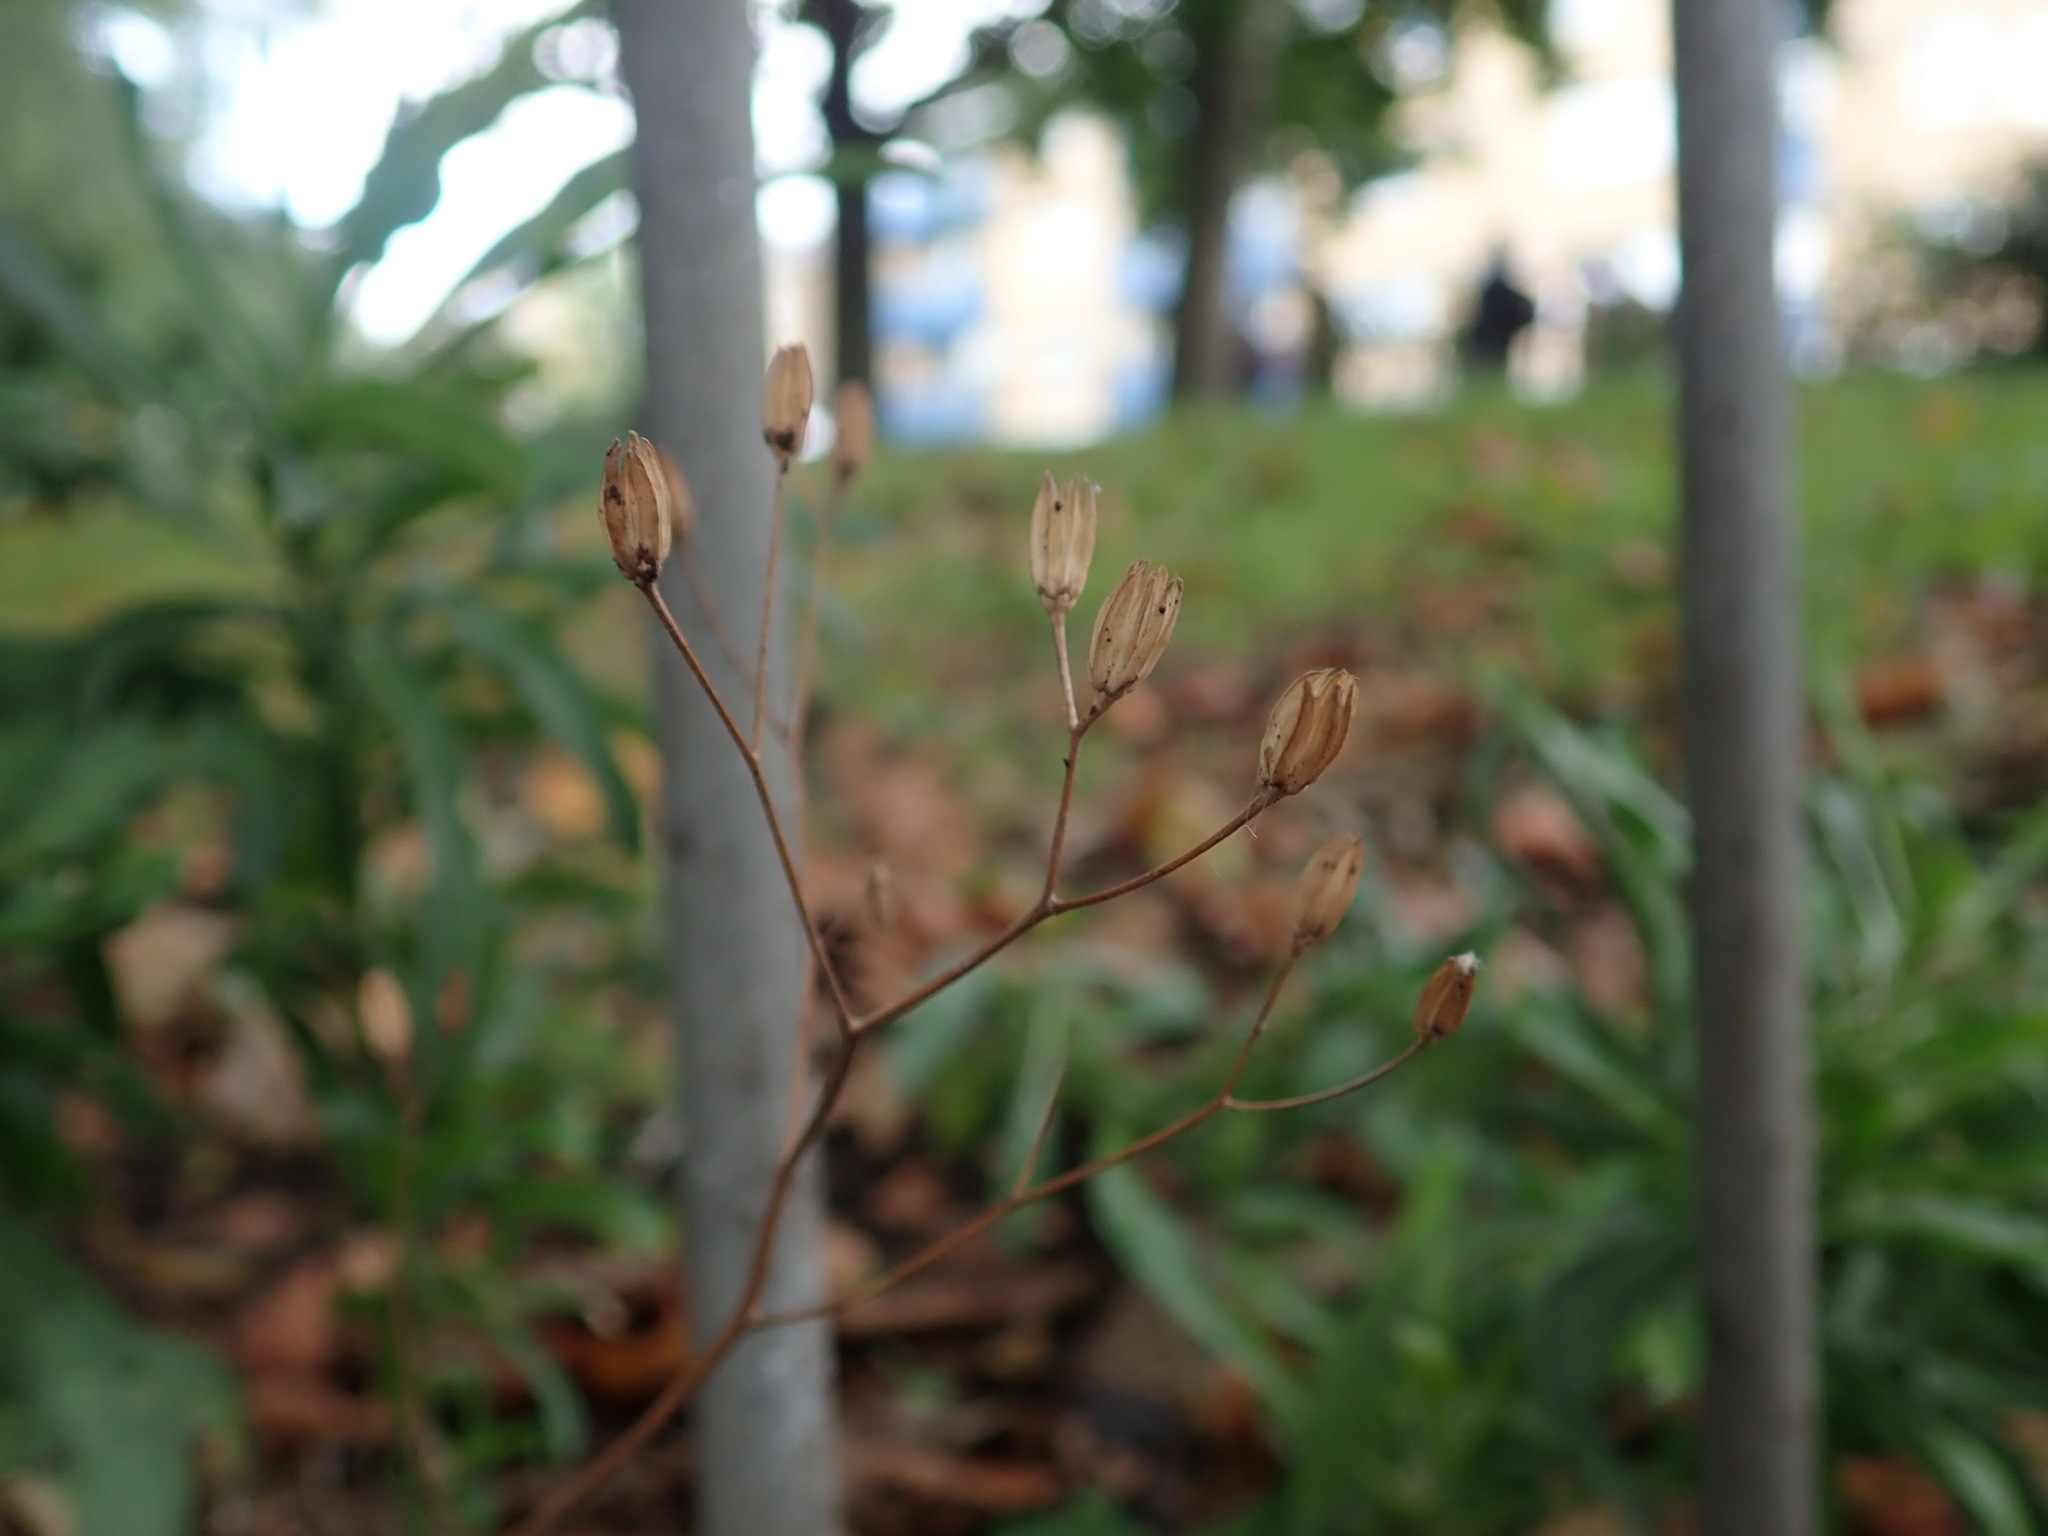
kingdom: Plantae
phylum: Tracheophyta
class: Magnoliopsida
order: Asterales
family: Asteraceae
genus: Lapsana
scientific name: Lapsana communis
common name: Nipplewort
